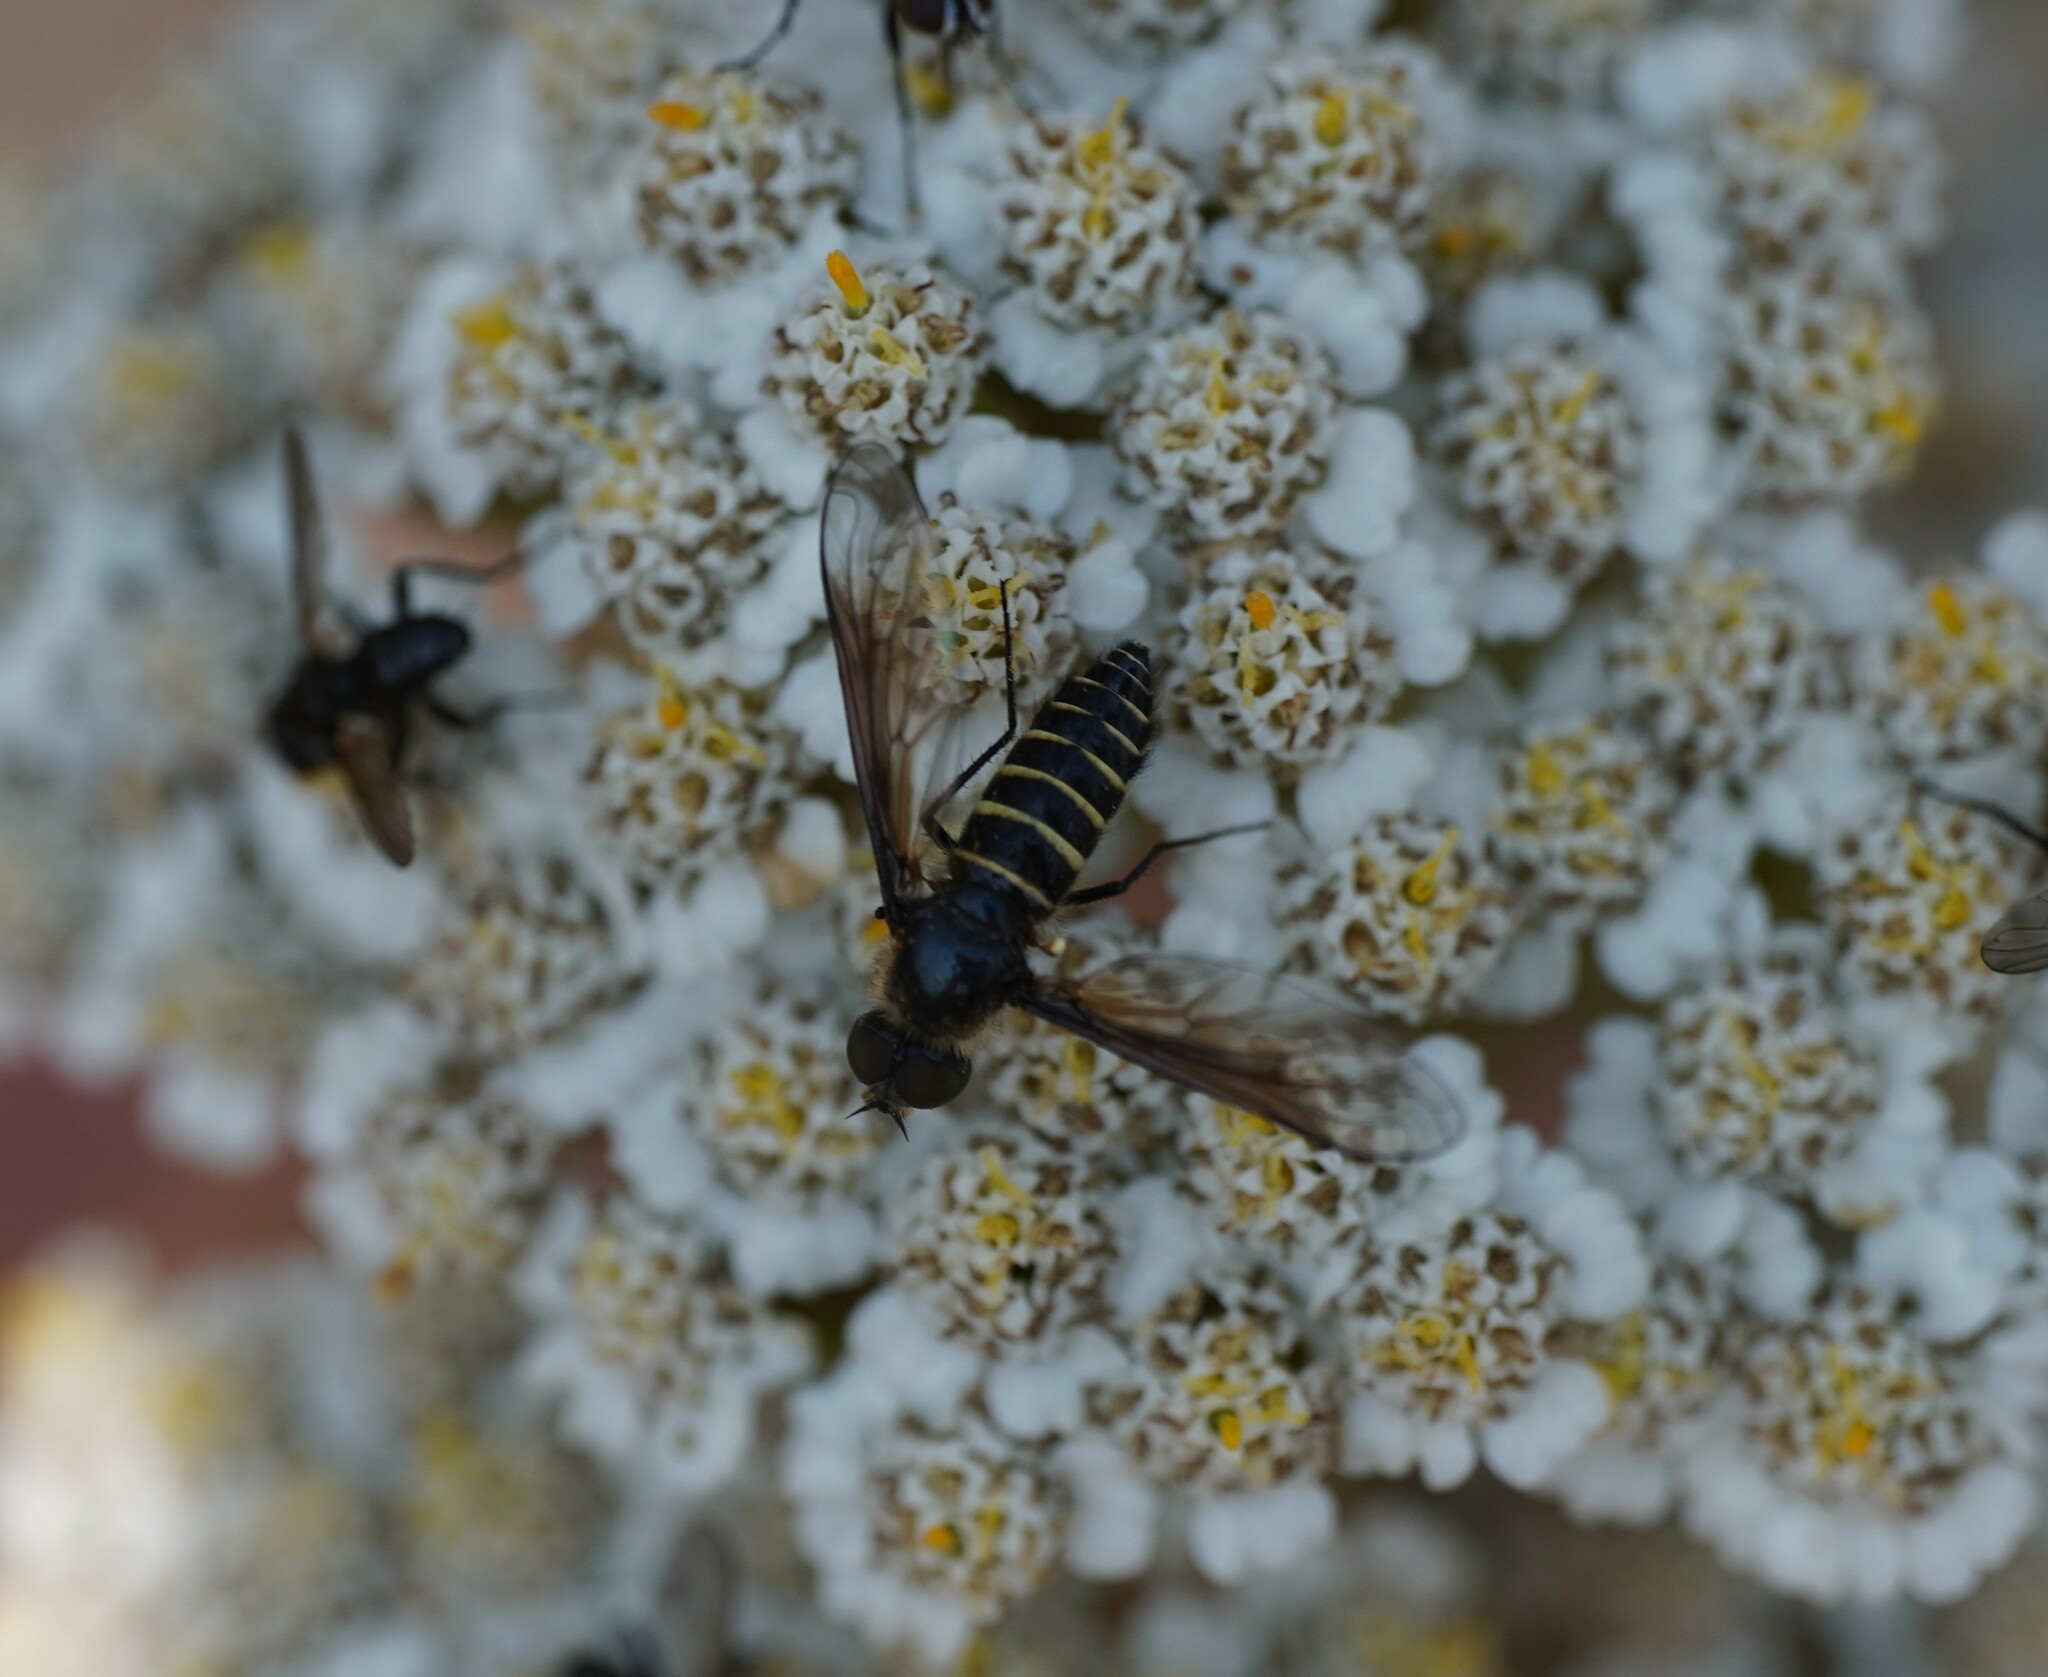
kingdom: Animalia
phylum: Arthropoda
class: Insecta
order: Diptera
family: Bombyliidae
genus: Lomatia
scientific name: Lomatia lateralis
